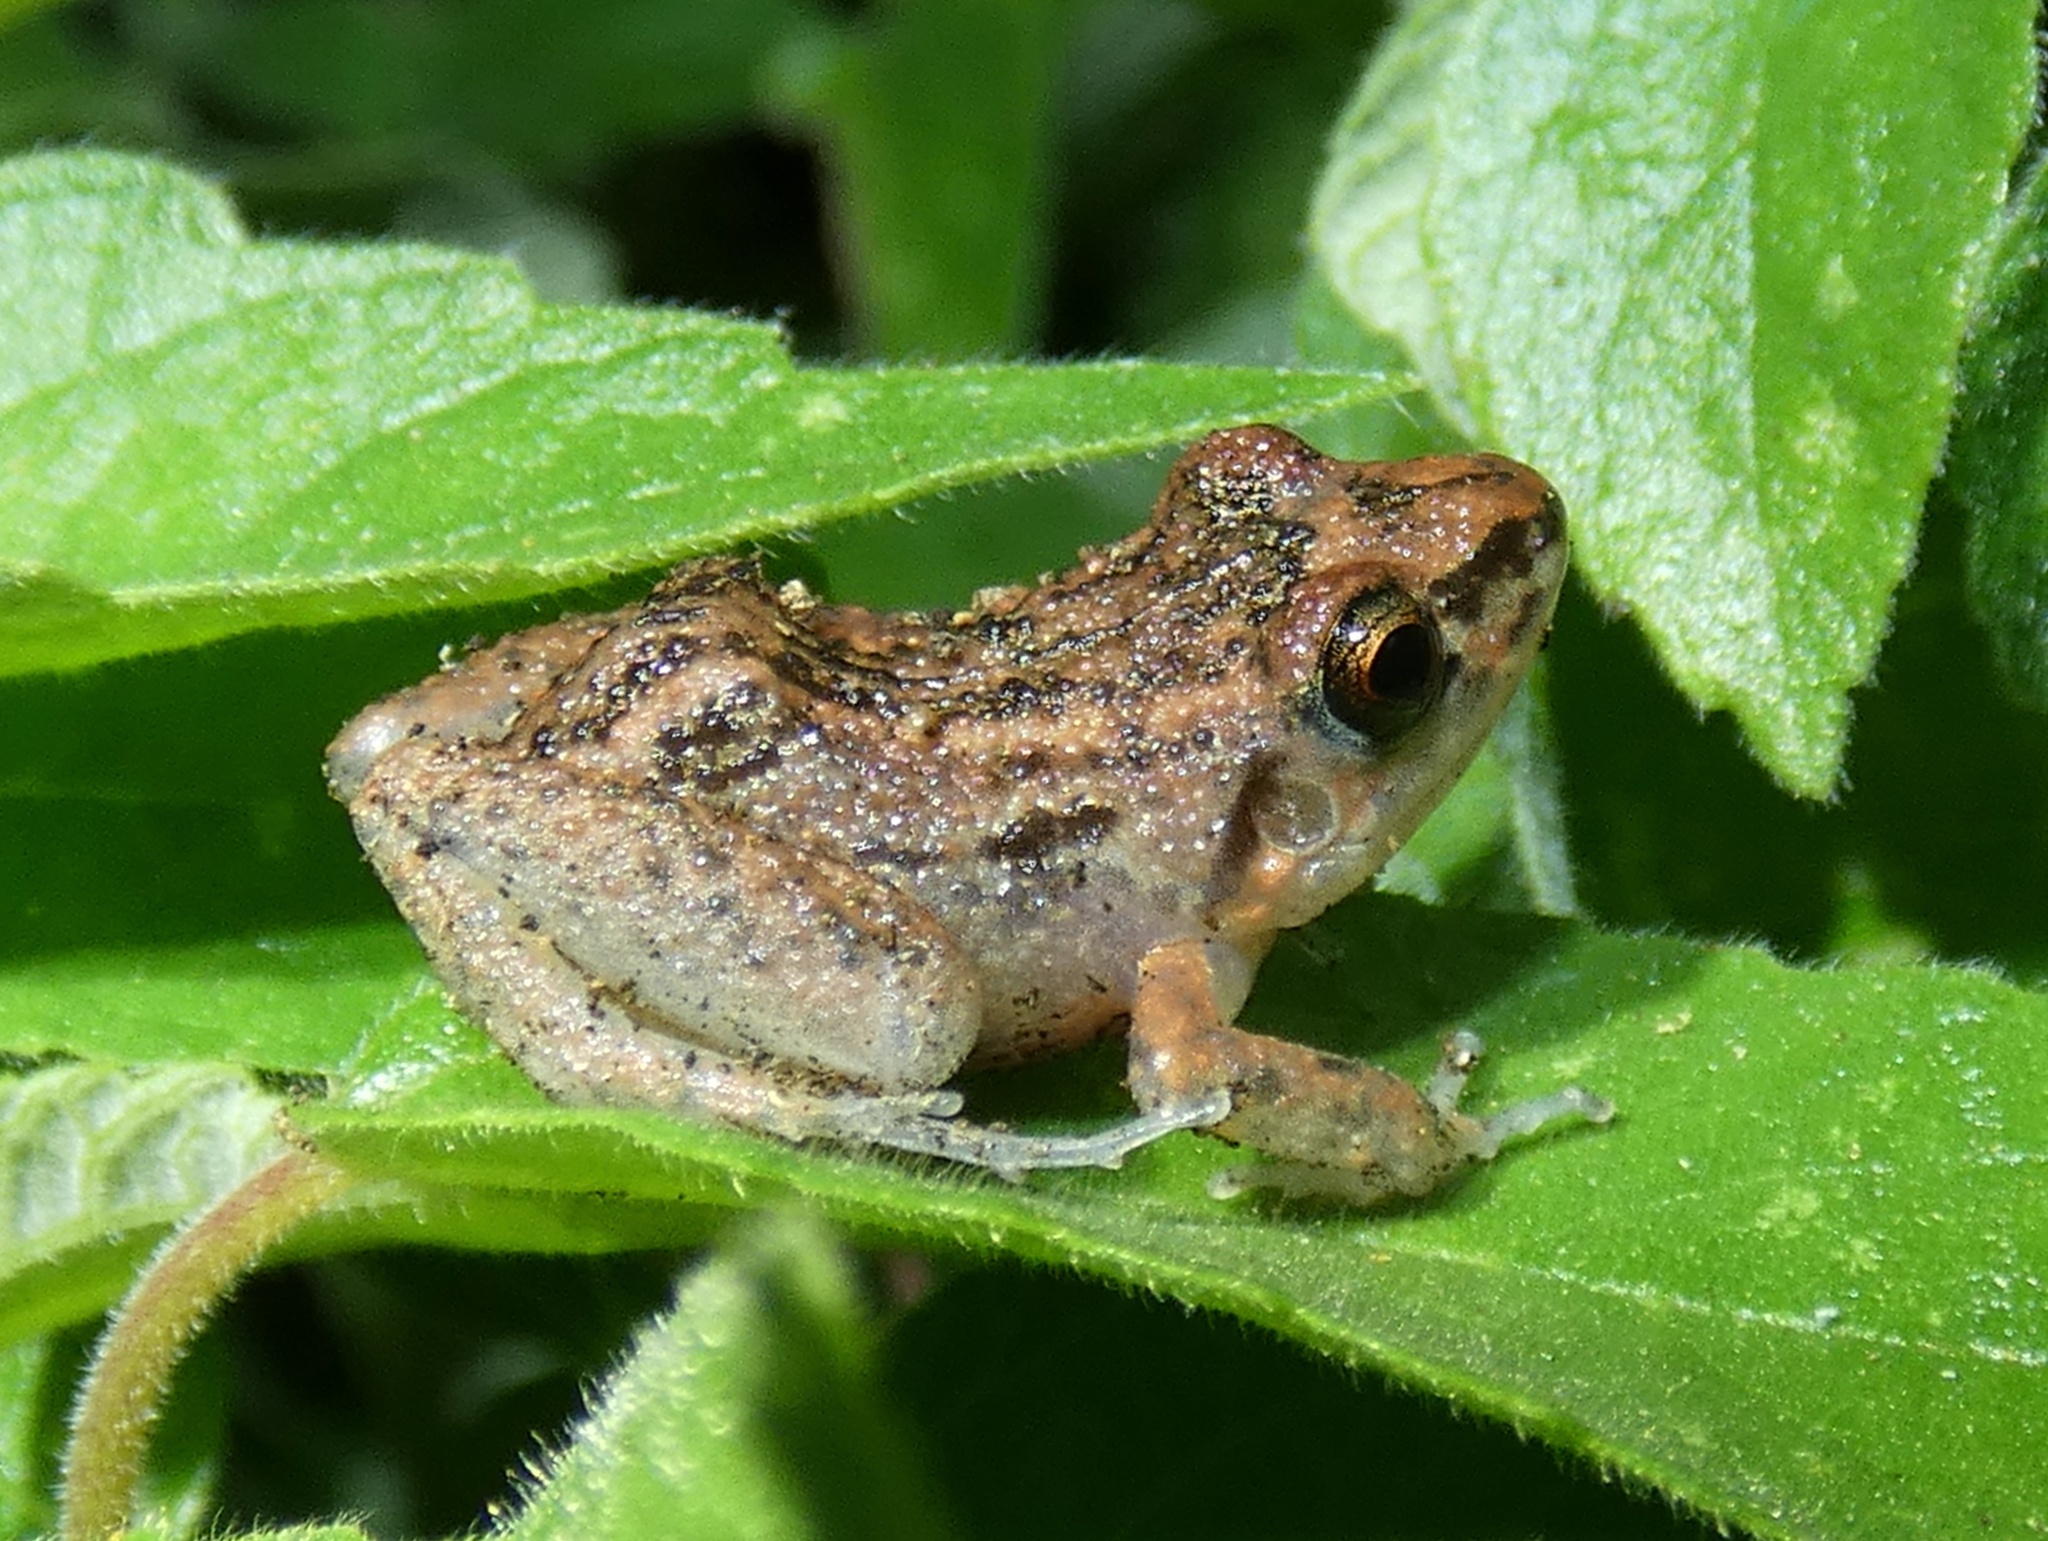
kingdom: Animalia
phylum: Chordata
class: Amphibia
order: Anura
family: Eleutherodactylidae
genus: Eleutherodactylus
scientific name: Eleutherodactylus planirostris
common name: Greenhouse frog
